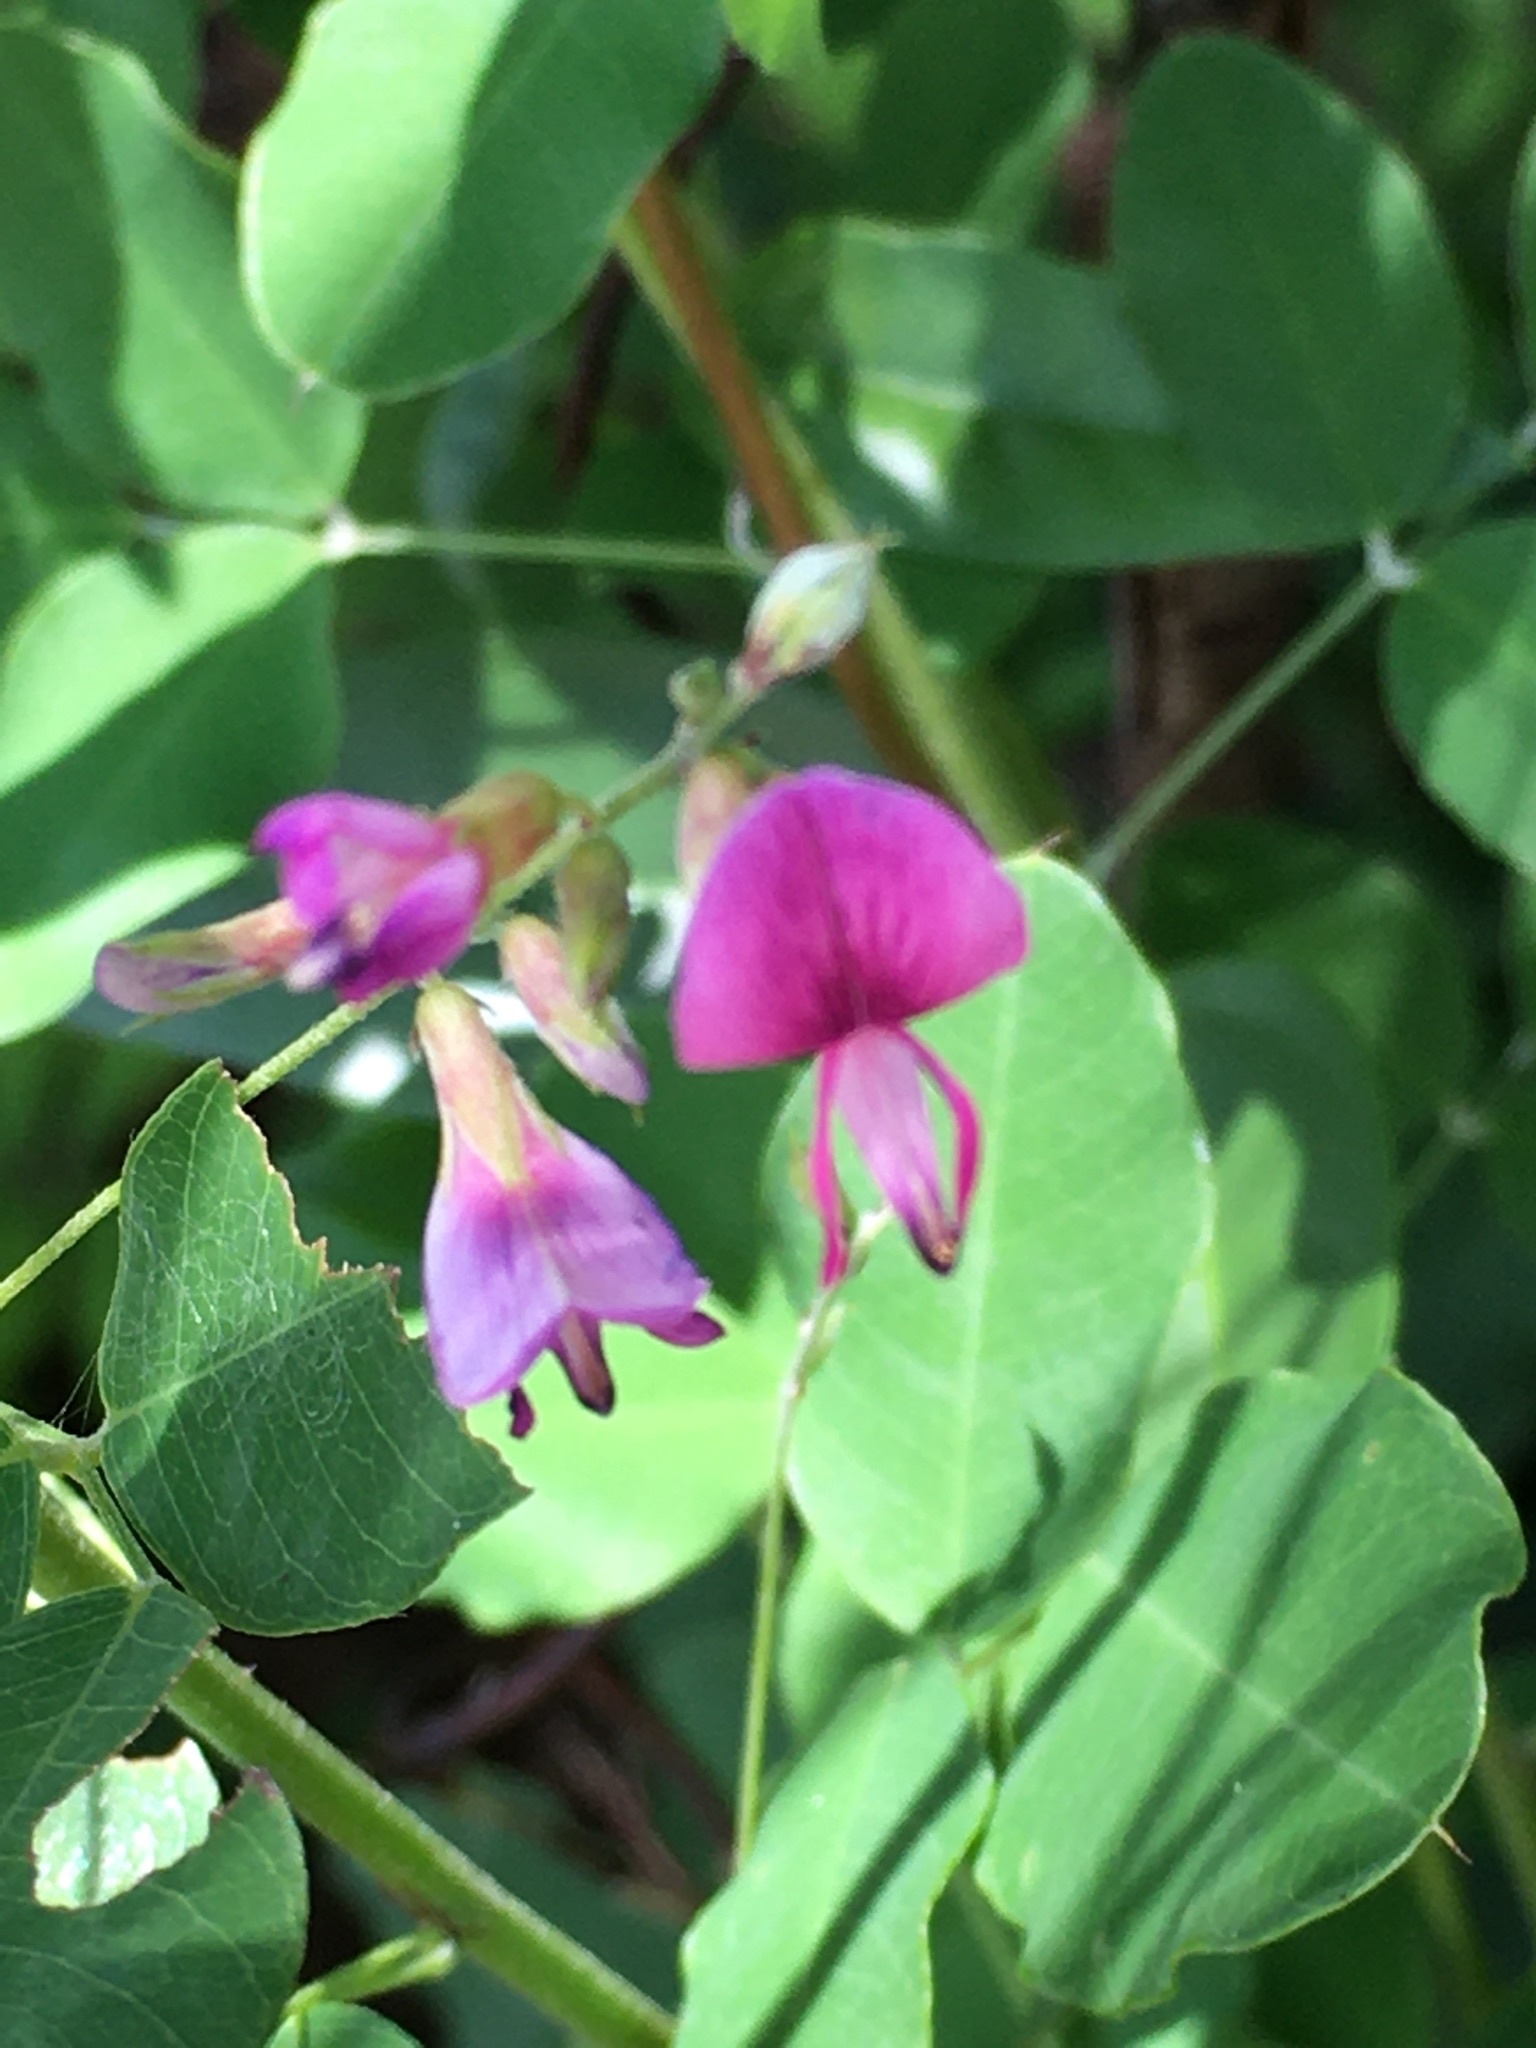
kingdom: Plantae
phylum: Tracheophyta
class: Magnoliopsida
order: Fabales
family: Fabaceae
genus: Lespedeza
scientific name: Lespedeza bicolor
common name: Shrub lespedeza
